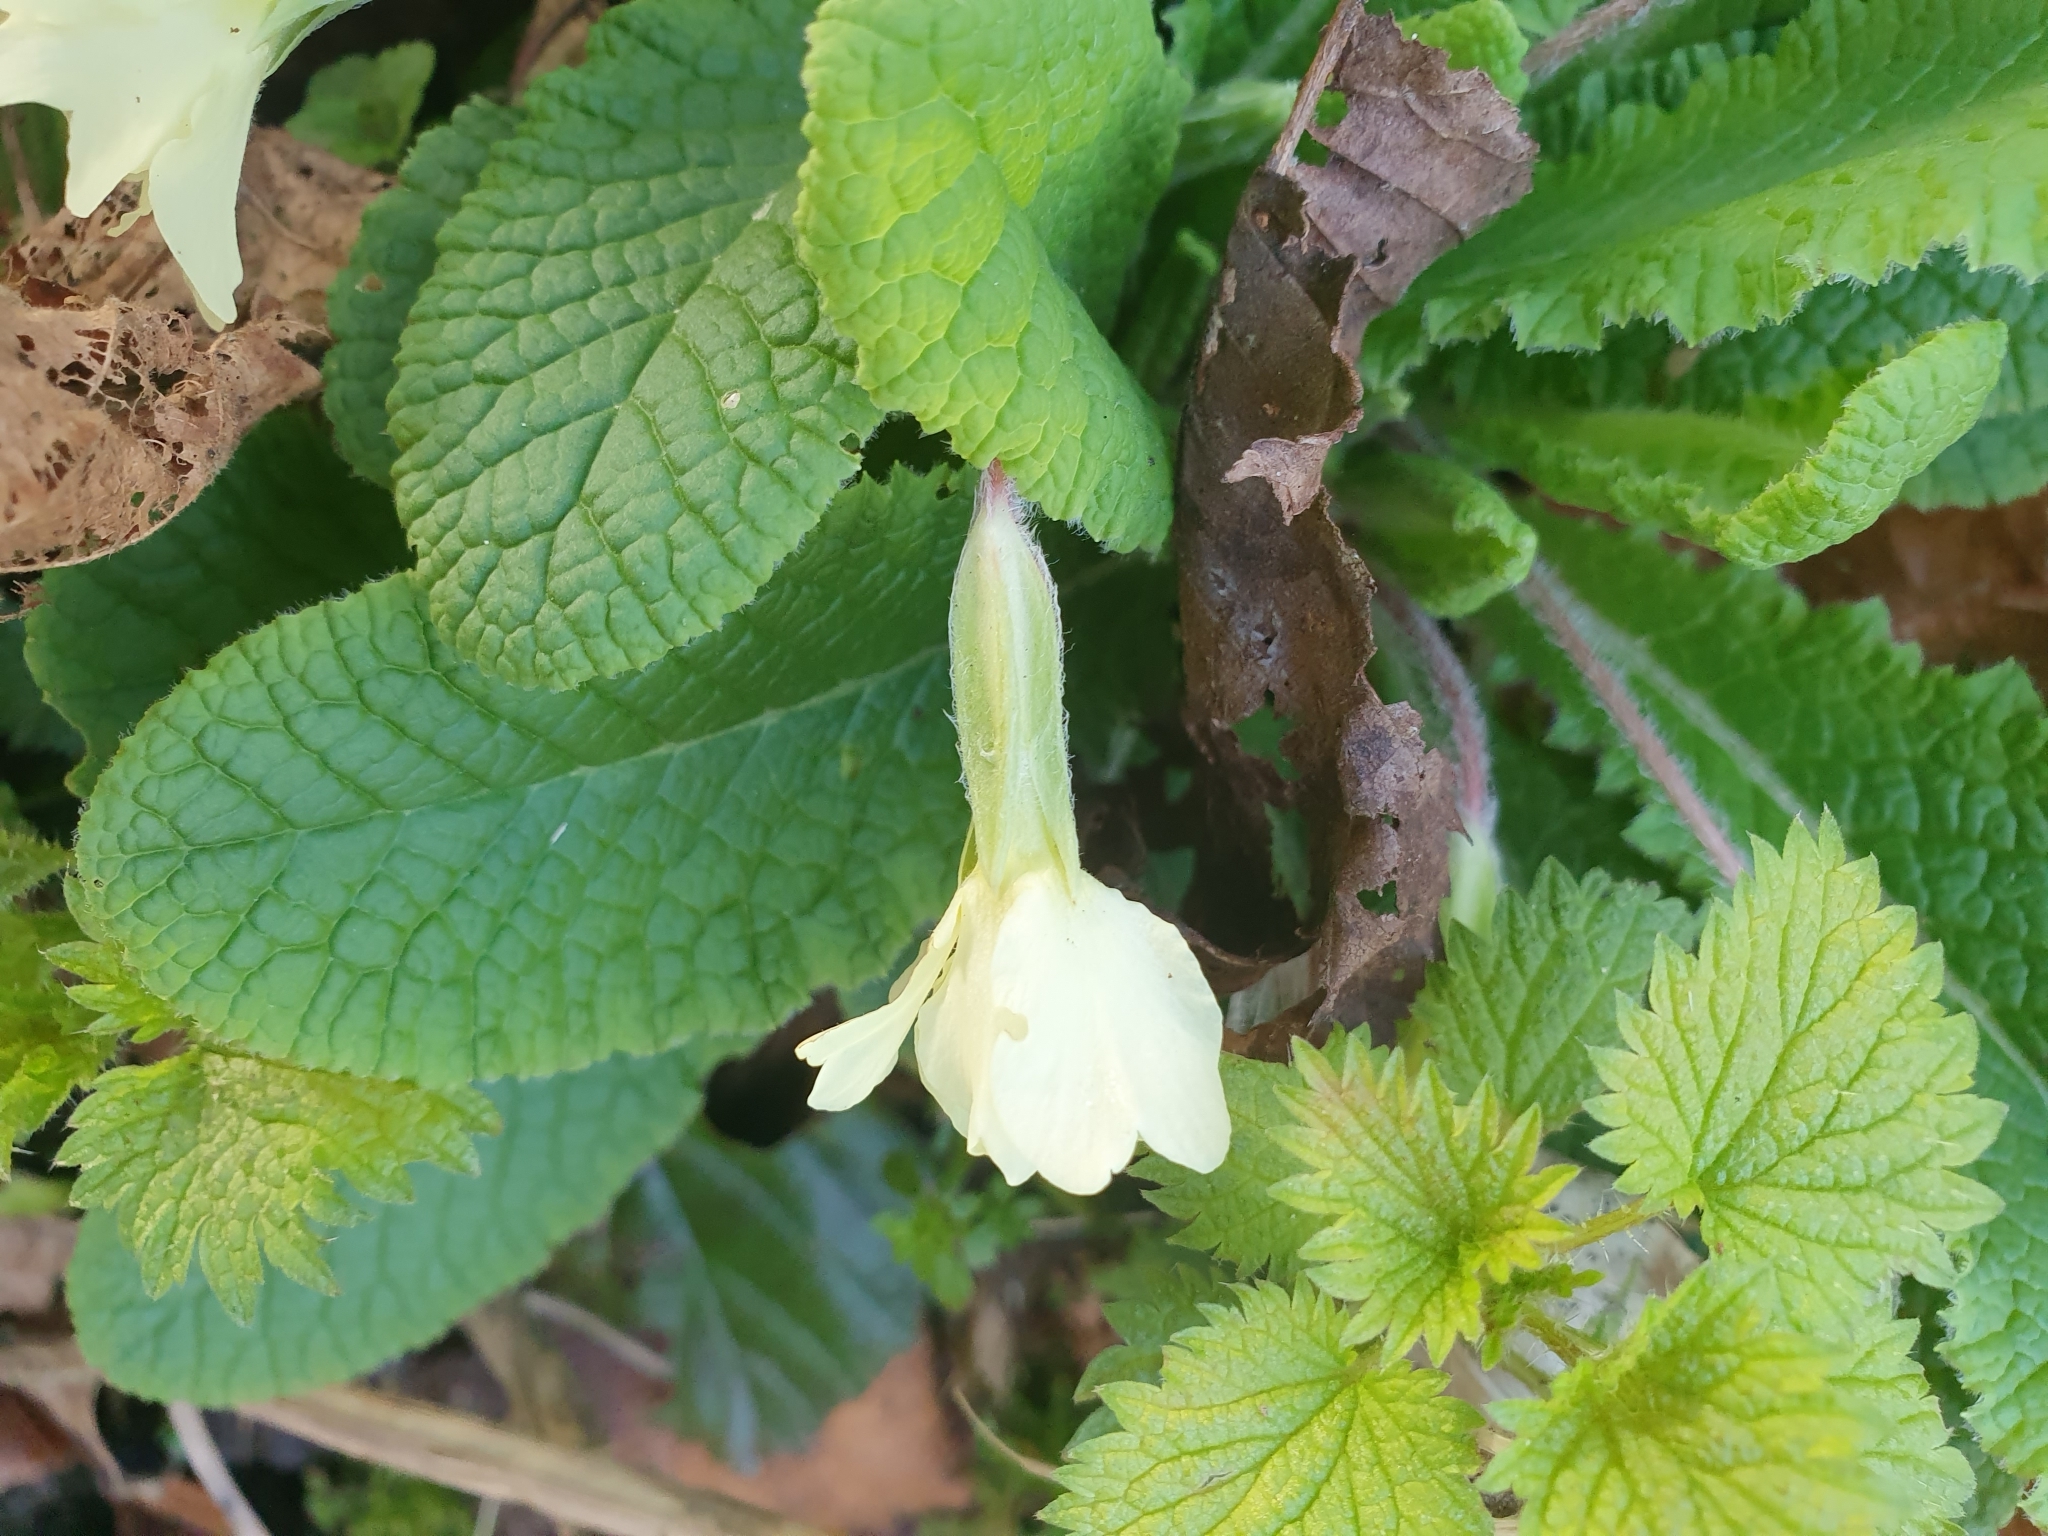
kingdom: Plantae
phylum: Tracheophyta
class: Magnoliopsida
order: Ericales
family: Primulaceae
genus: Primula
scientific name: Primula vulgaris
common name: Primrose
